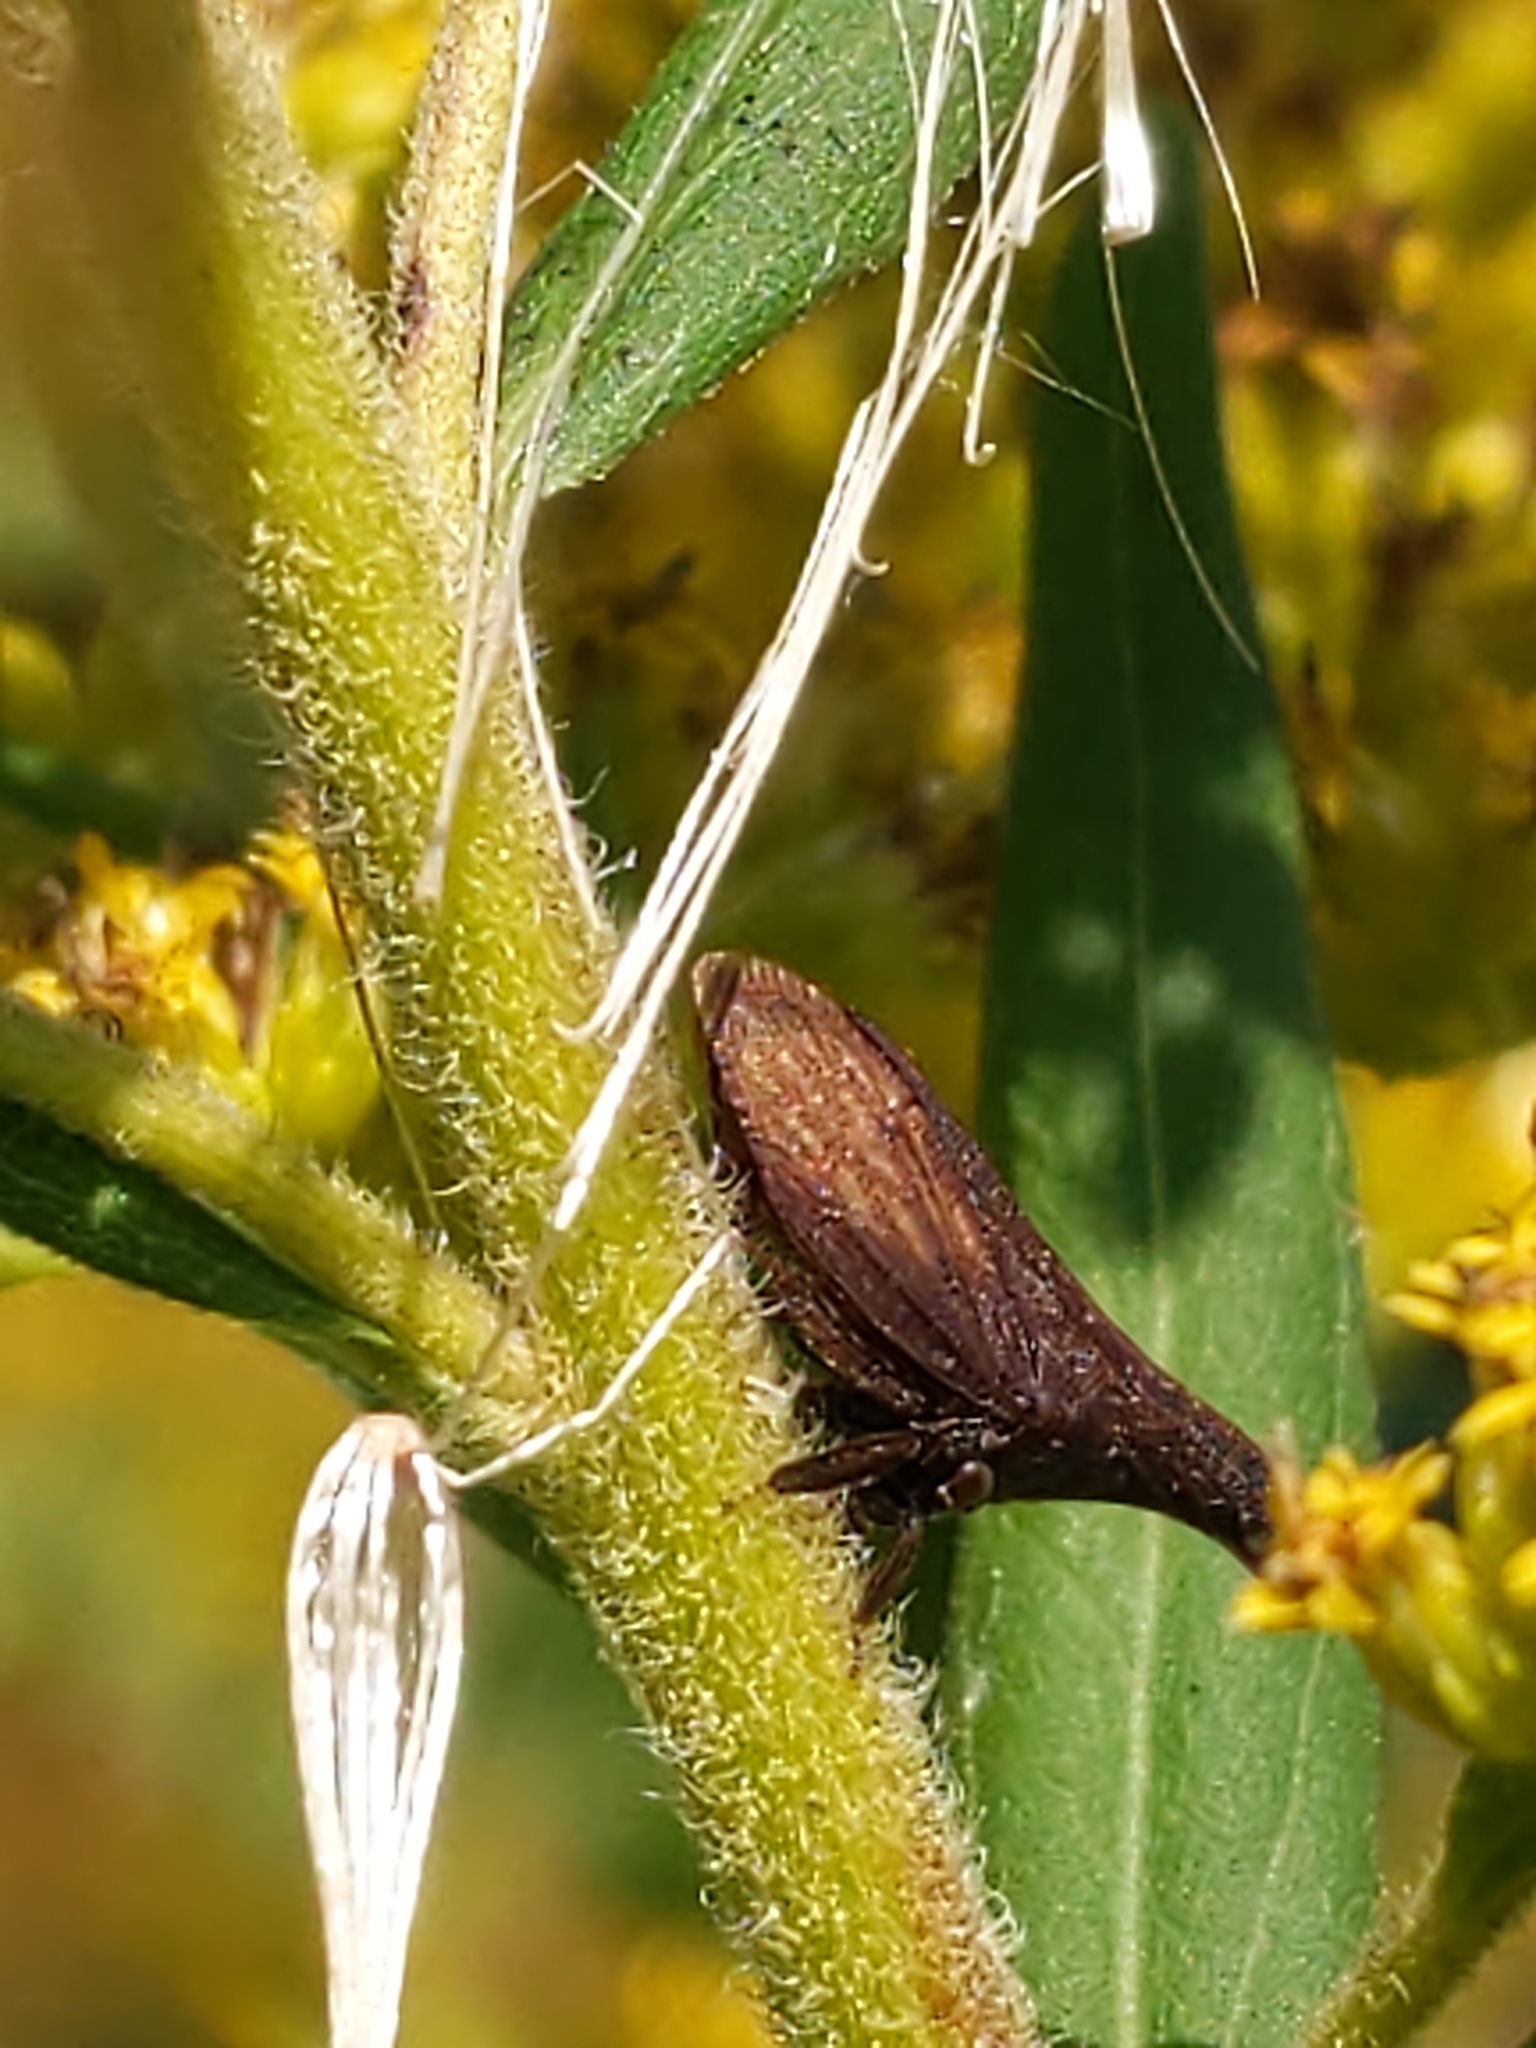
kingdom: Animalia
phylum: Arthropoda
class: Insecta
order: Hemiptera
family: Membracidae
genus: Enchenopa
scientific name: Enchenopa latipes
